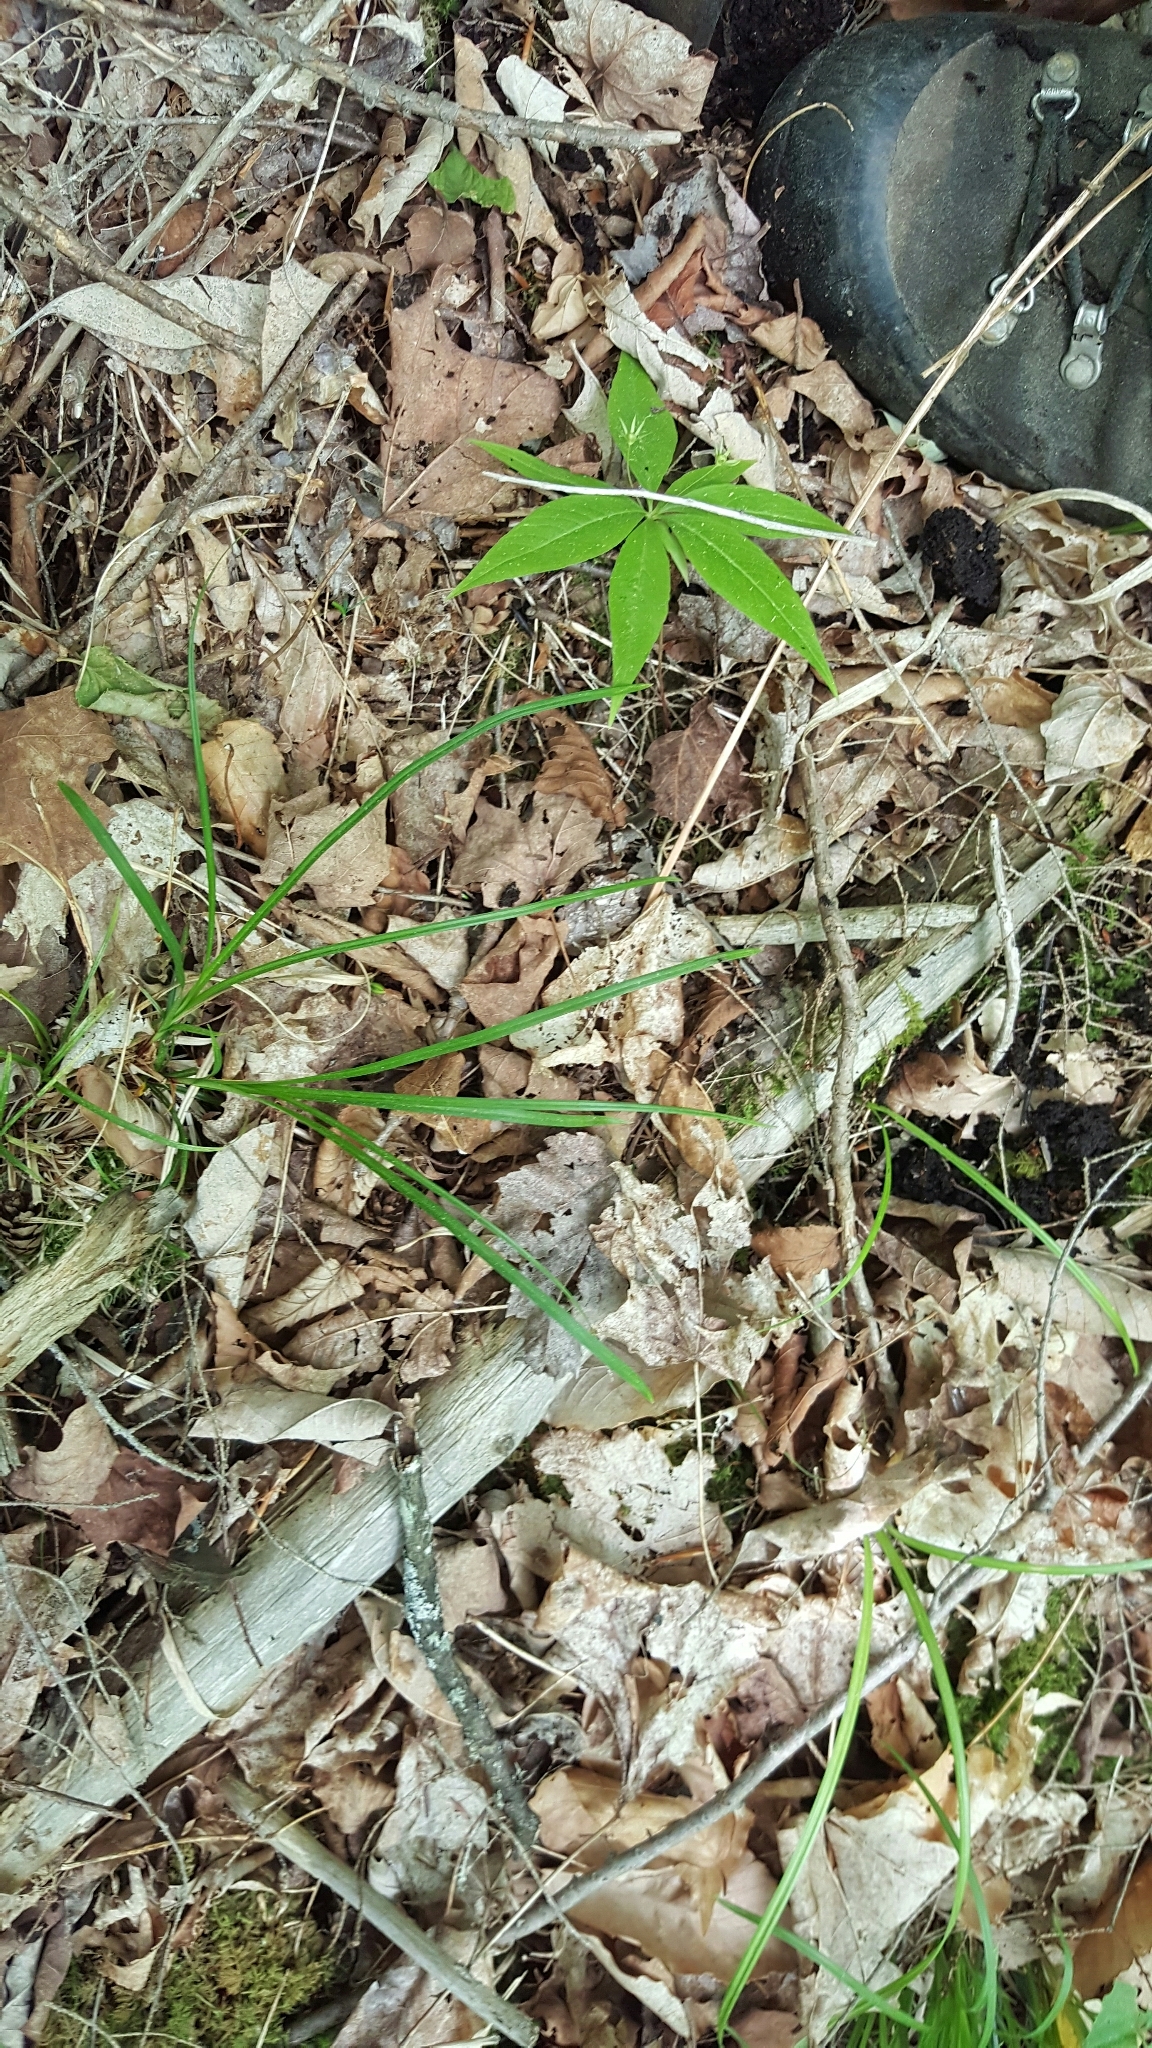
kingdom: Plantae
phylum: Tracheophyta
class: Magnoliopsida
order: Ericales
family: Primulaceae
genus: Lysimachia
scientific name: Lysimachia borealis
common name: American starflower
